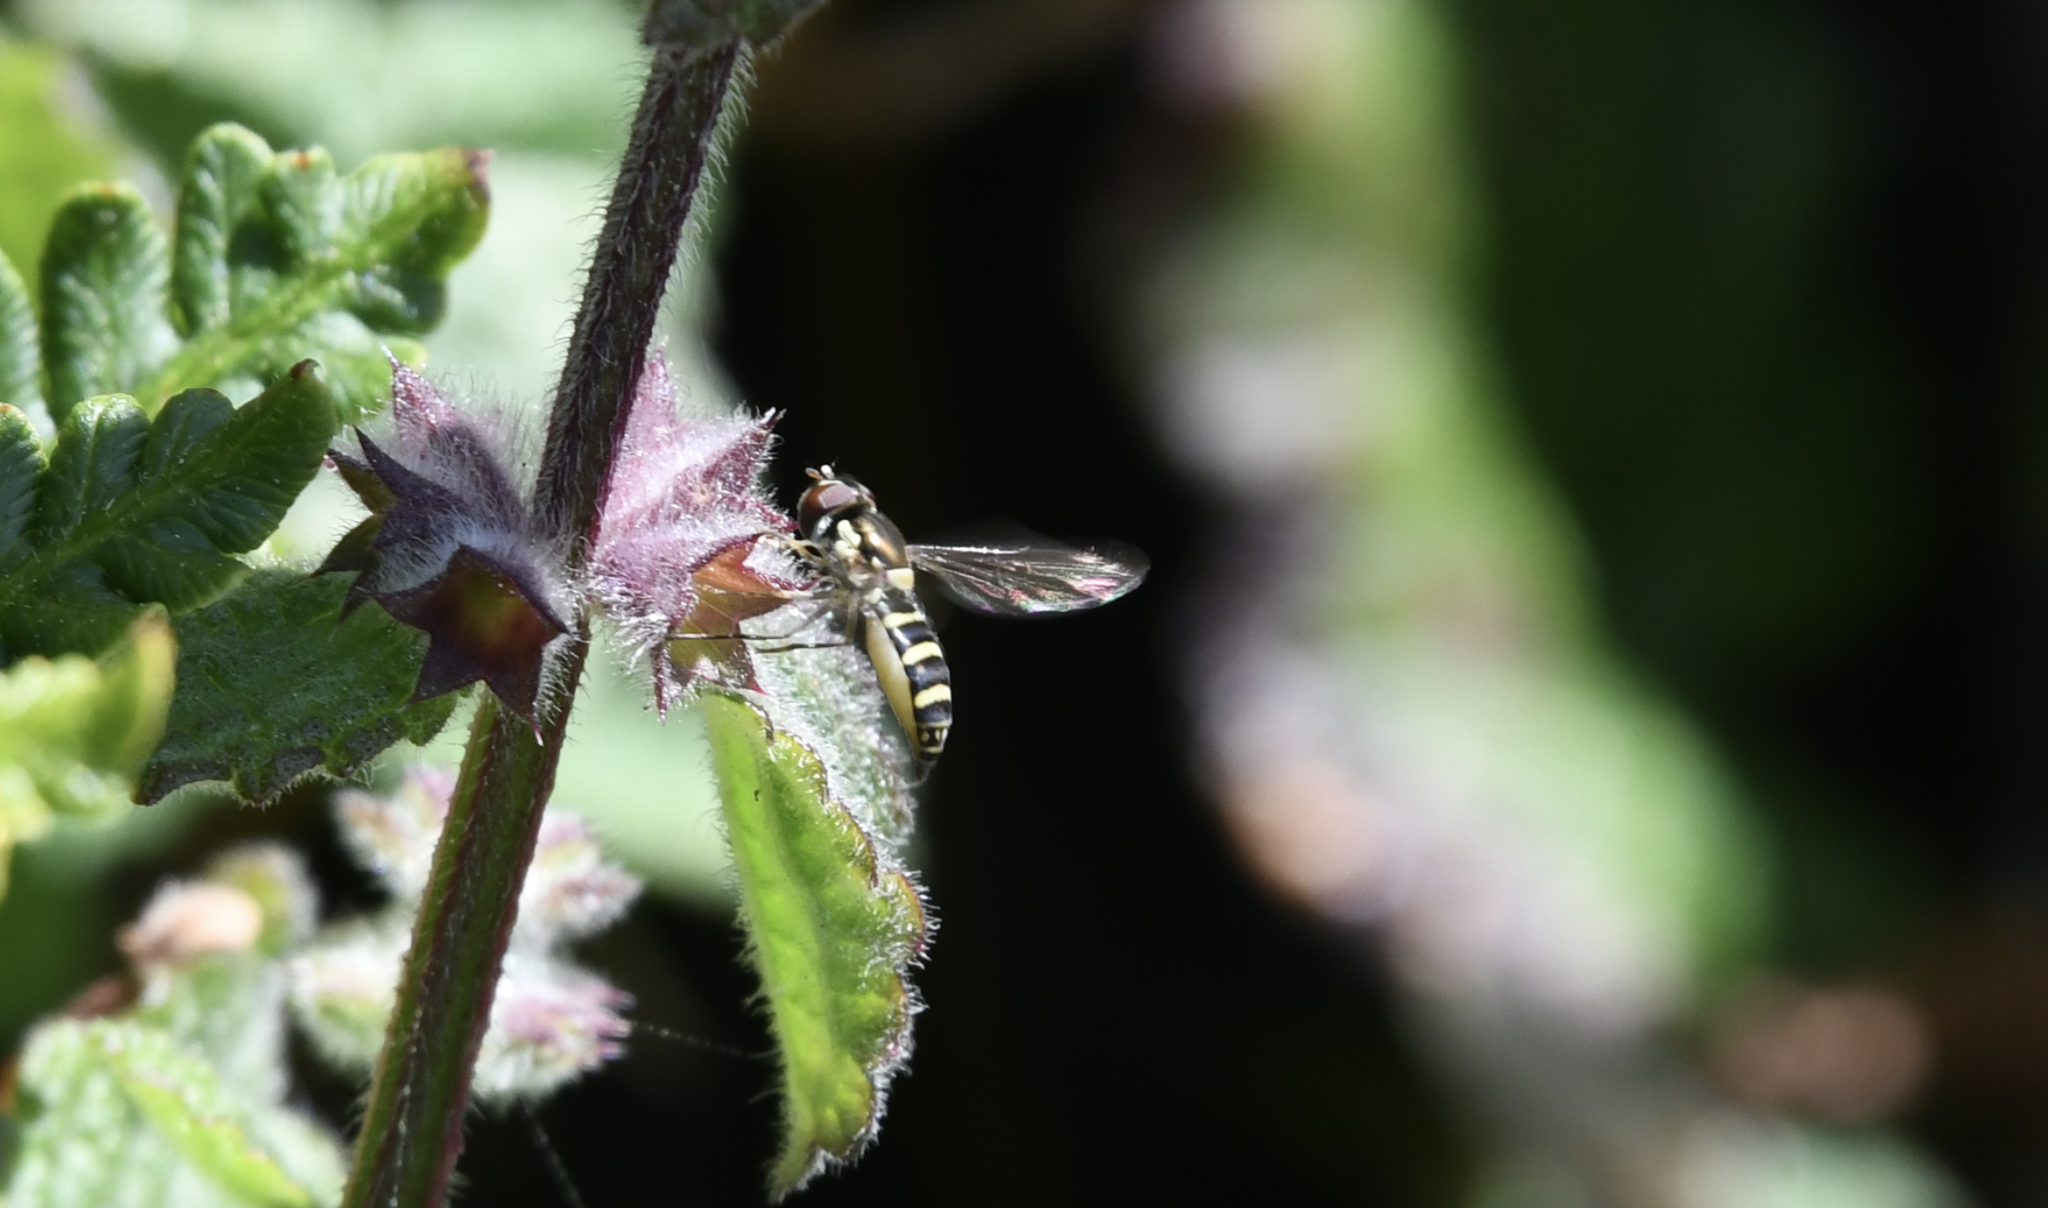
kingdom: Animalia
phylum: Arthropoda
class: Insecta
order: Diptera
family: Syrphidae
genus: Fazia
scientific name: Fazia micrura
